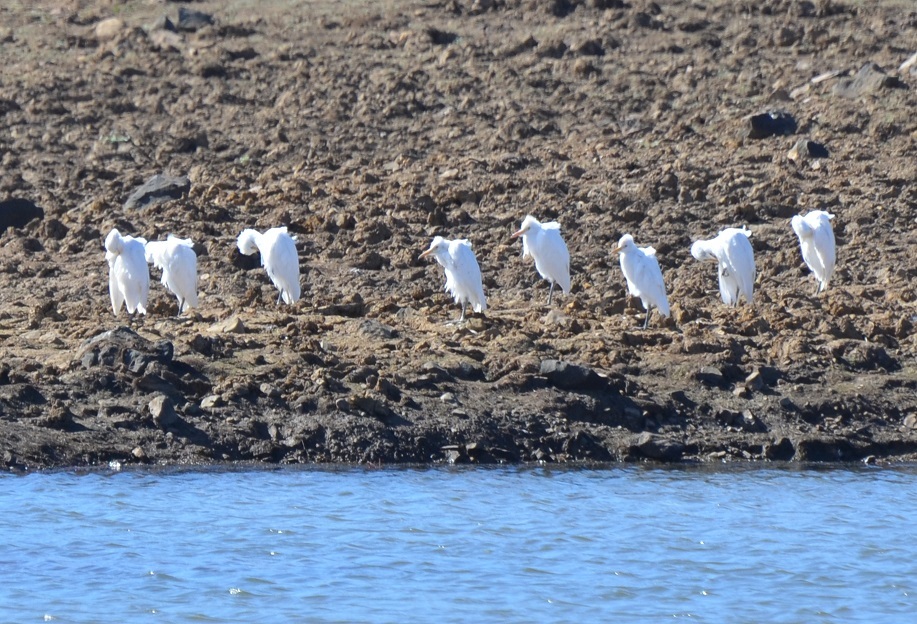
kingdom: Animalia
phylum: Chordata
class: Aves
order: Pelecaniformes
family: Ardeidae
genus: Bubulcus
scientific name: Bubulcus ibis
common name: Cattle egret
